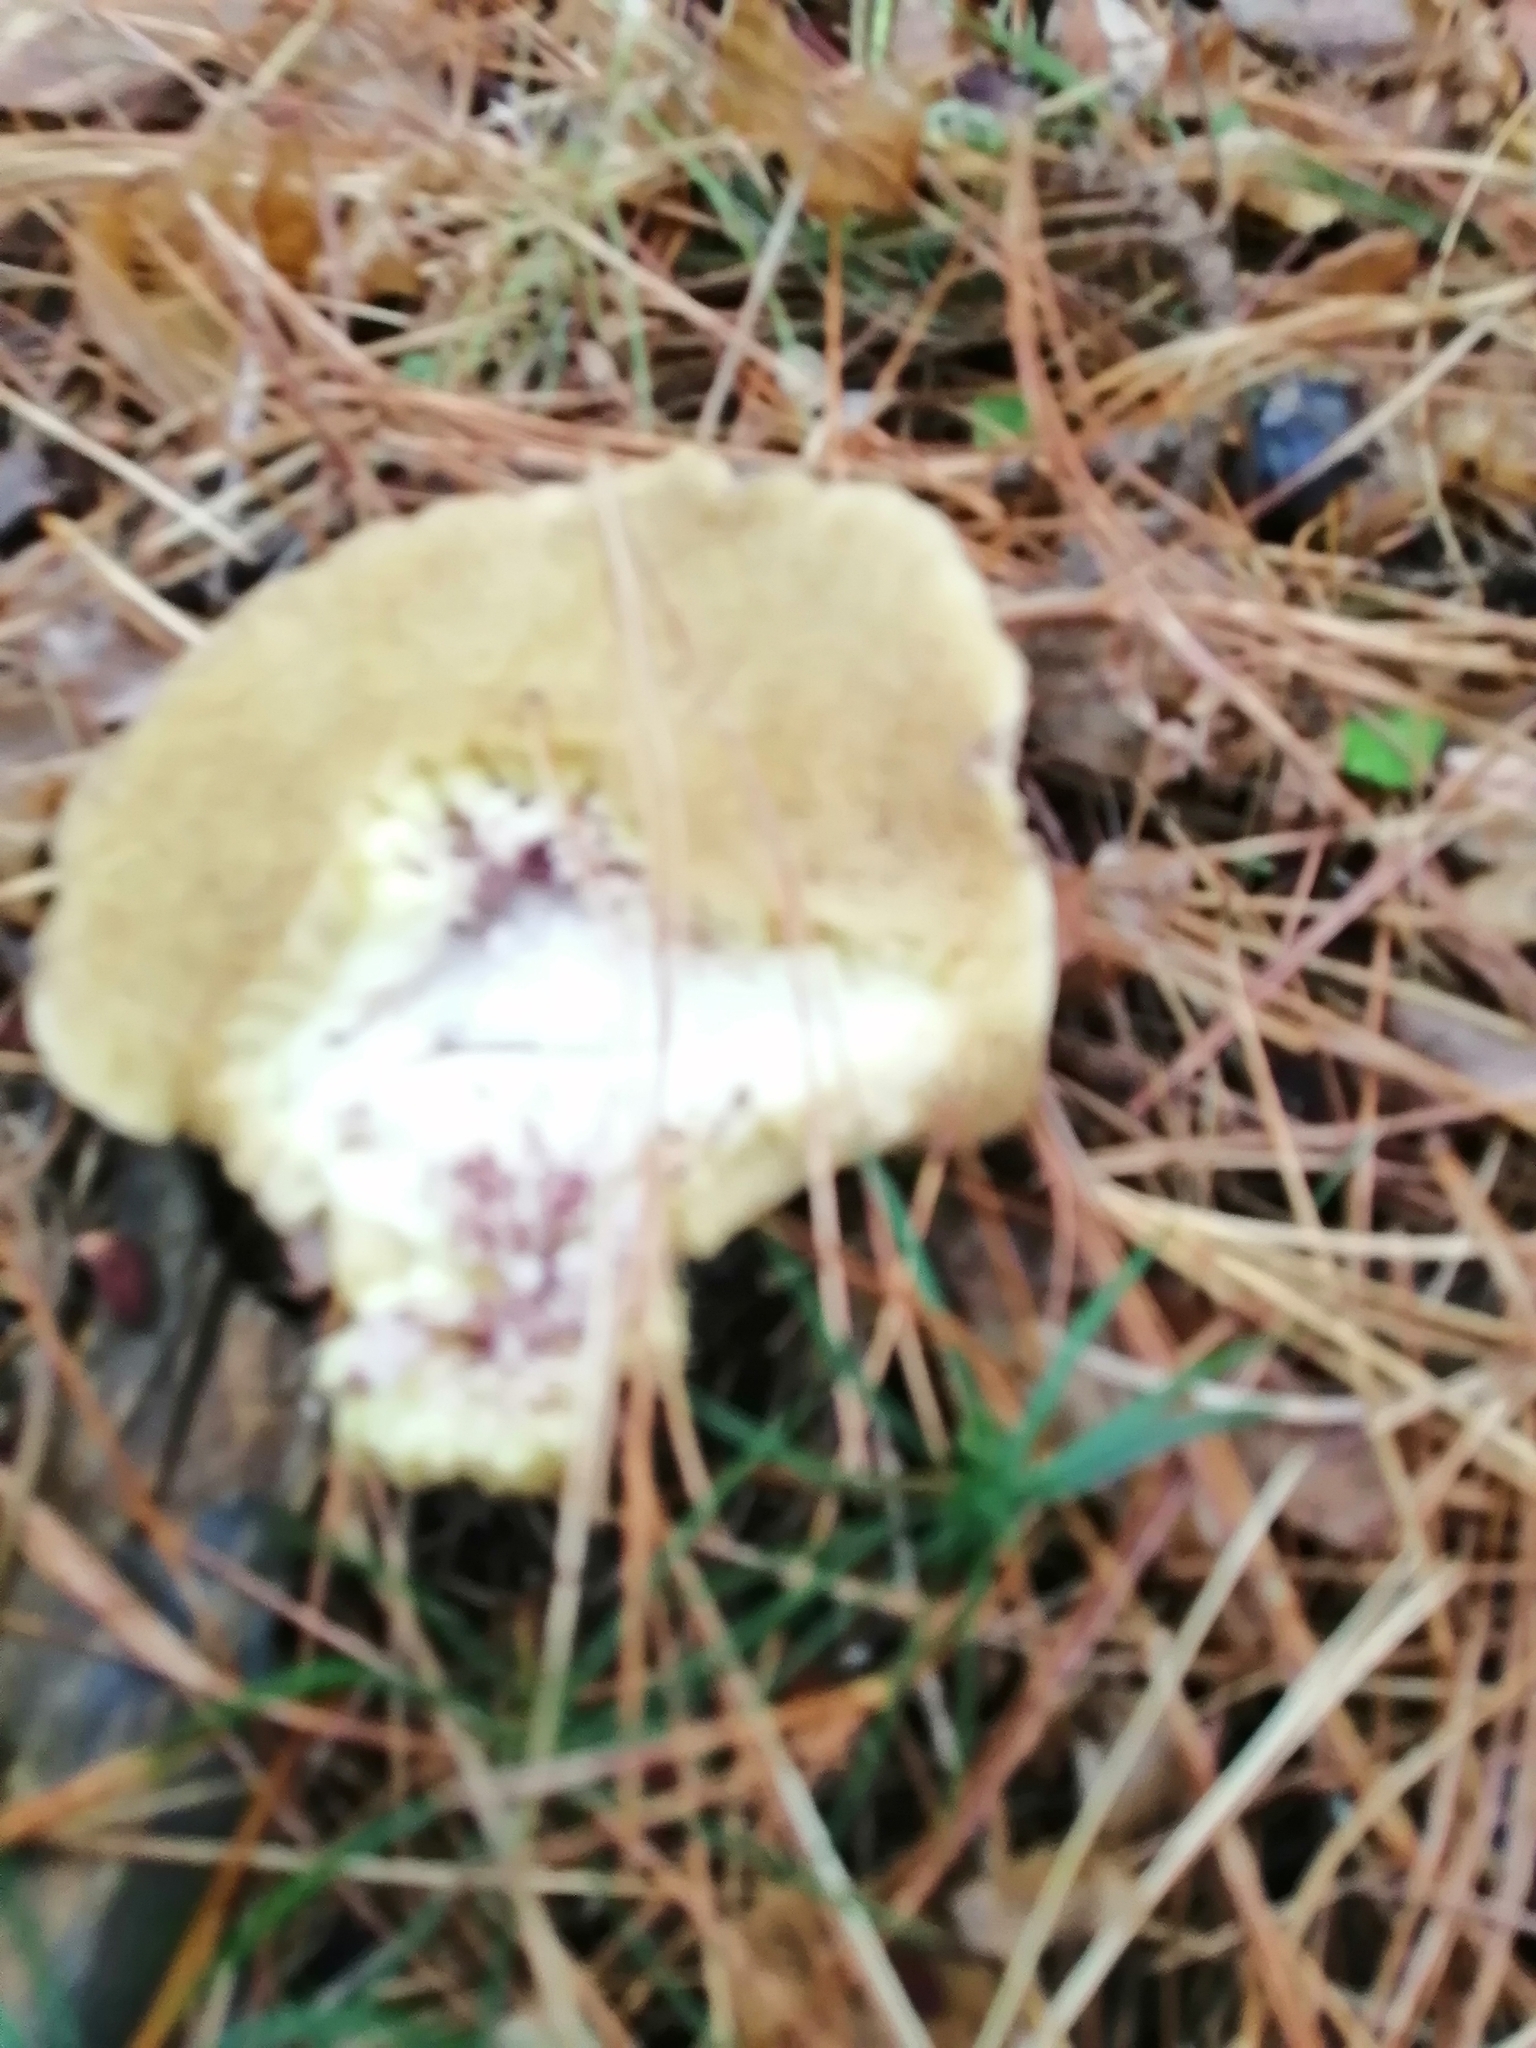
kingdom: Fungi
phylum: Basidiomycota
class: Agaricomycetes
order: Boletales
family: Suillaceae
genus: Suillus
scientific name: Suillus placidus
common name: Slippery white bolete
